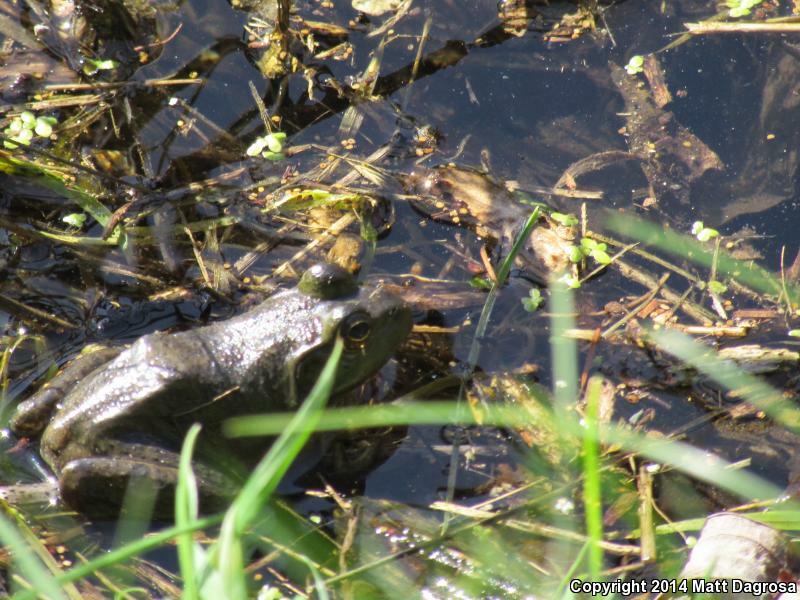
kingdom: Animalia
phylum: Chordata
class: Amphibia
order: Anura
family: Ranidae
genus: Lithobates
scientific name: Lithobates catesbeianus
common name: American bullfrog
